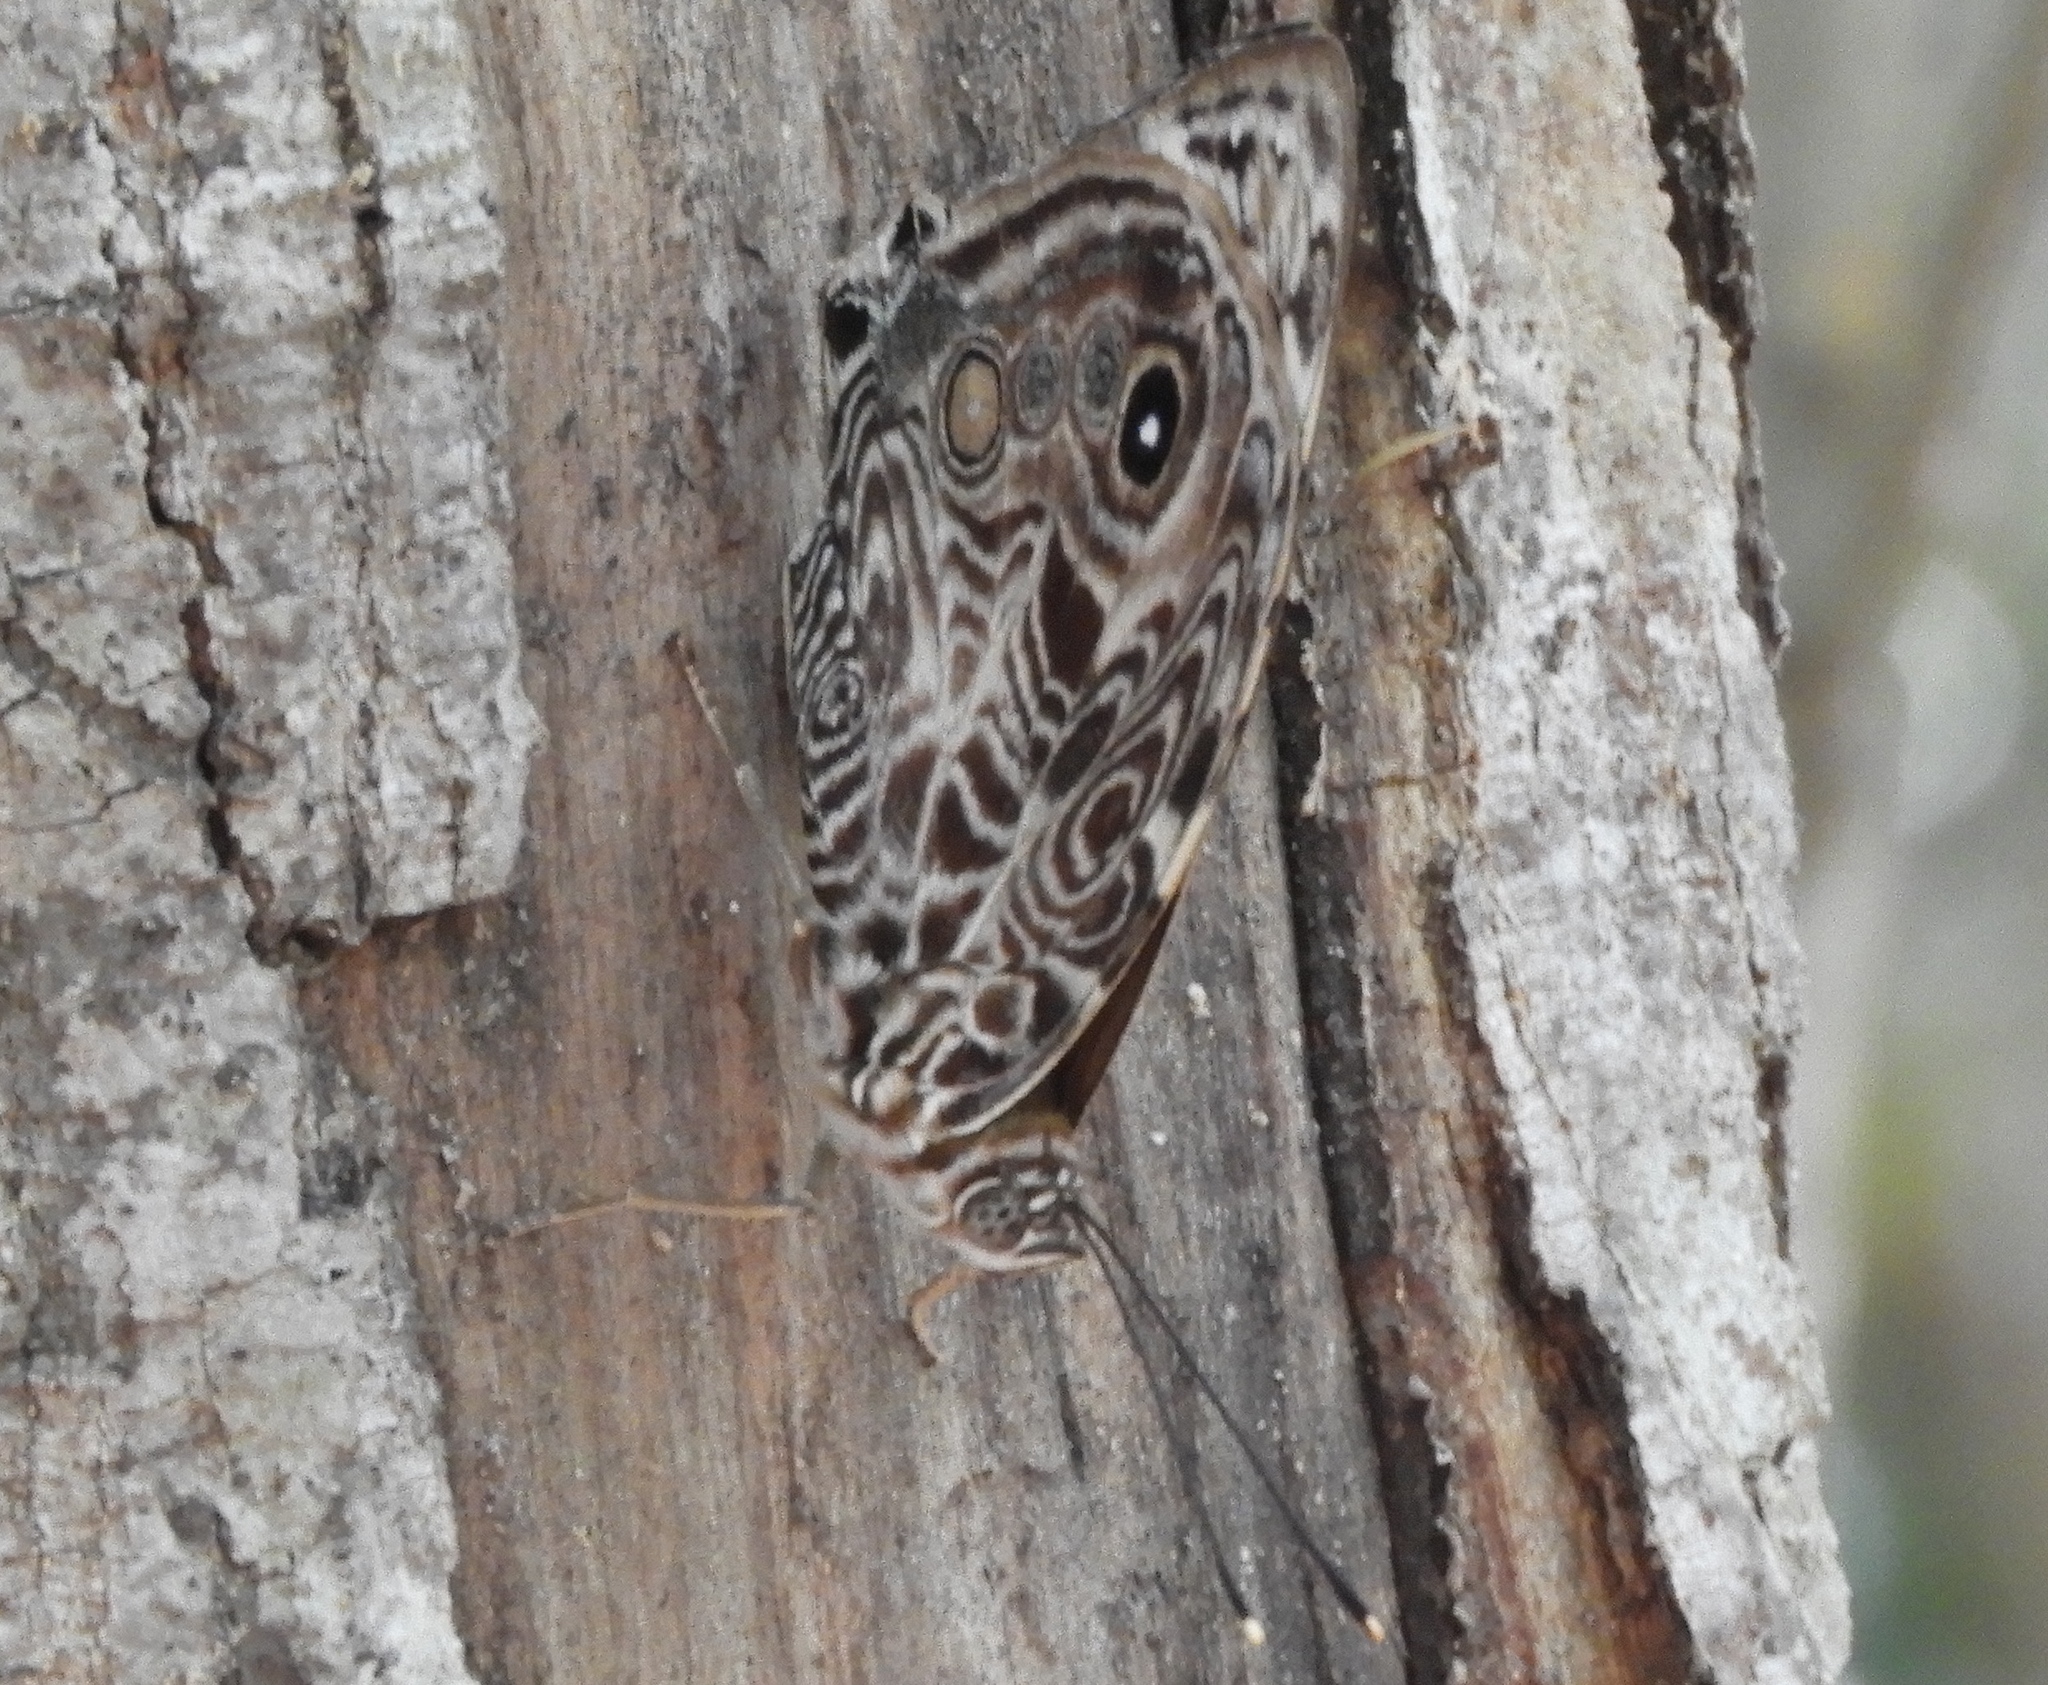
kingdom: Animalia
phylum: Arthropoda
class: Insecta
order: Lepidoptera
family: Nymphalidae
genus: Smyrna
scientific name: Smyrna blomfildia
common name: Blomfild's beauty
